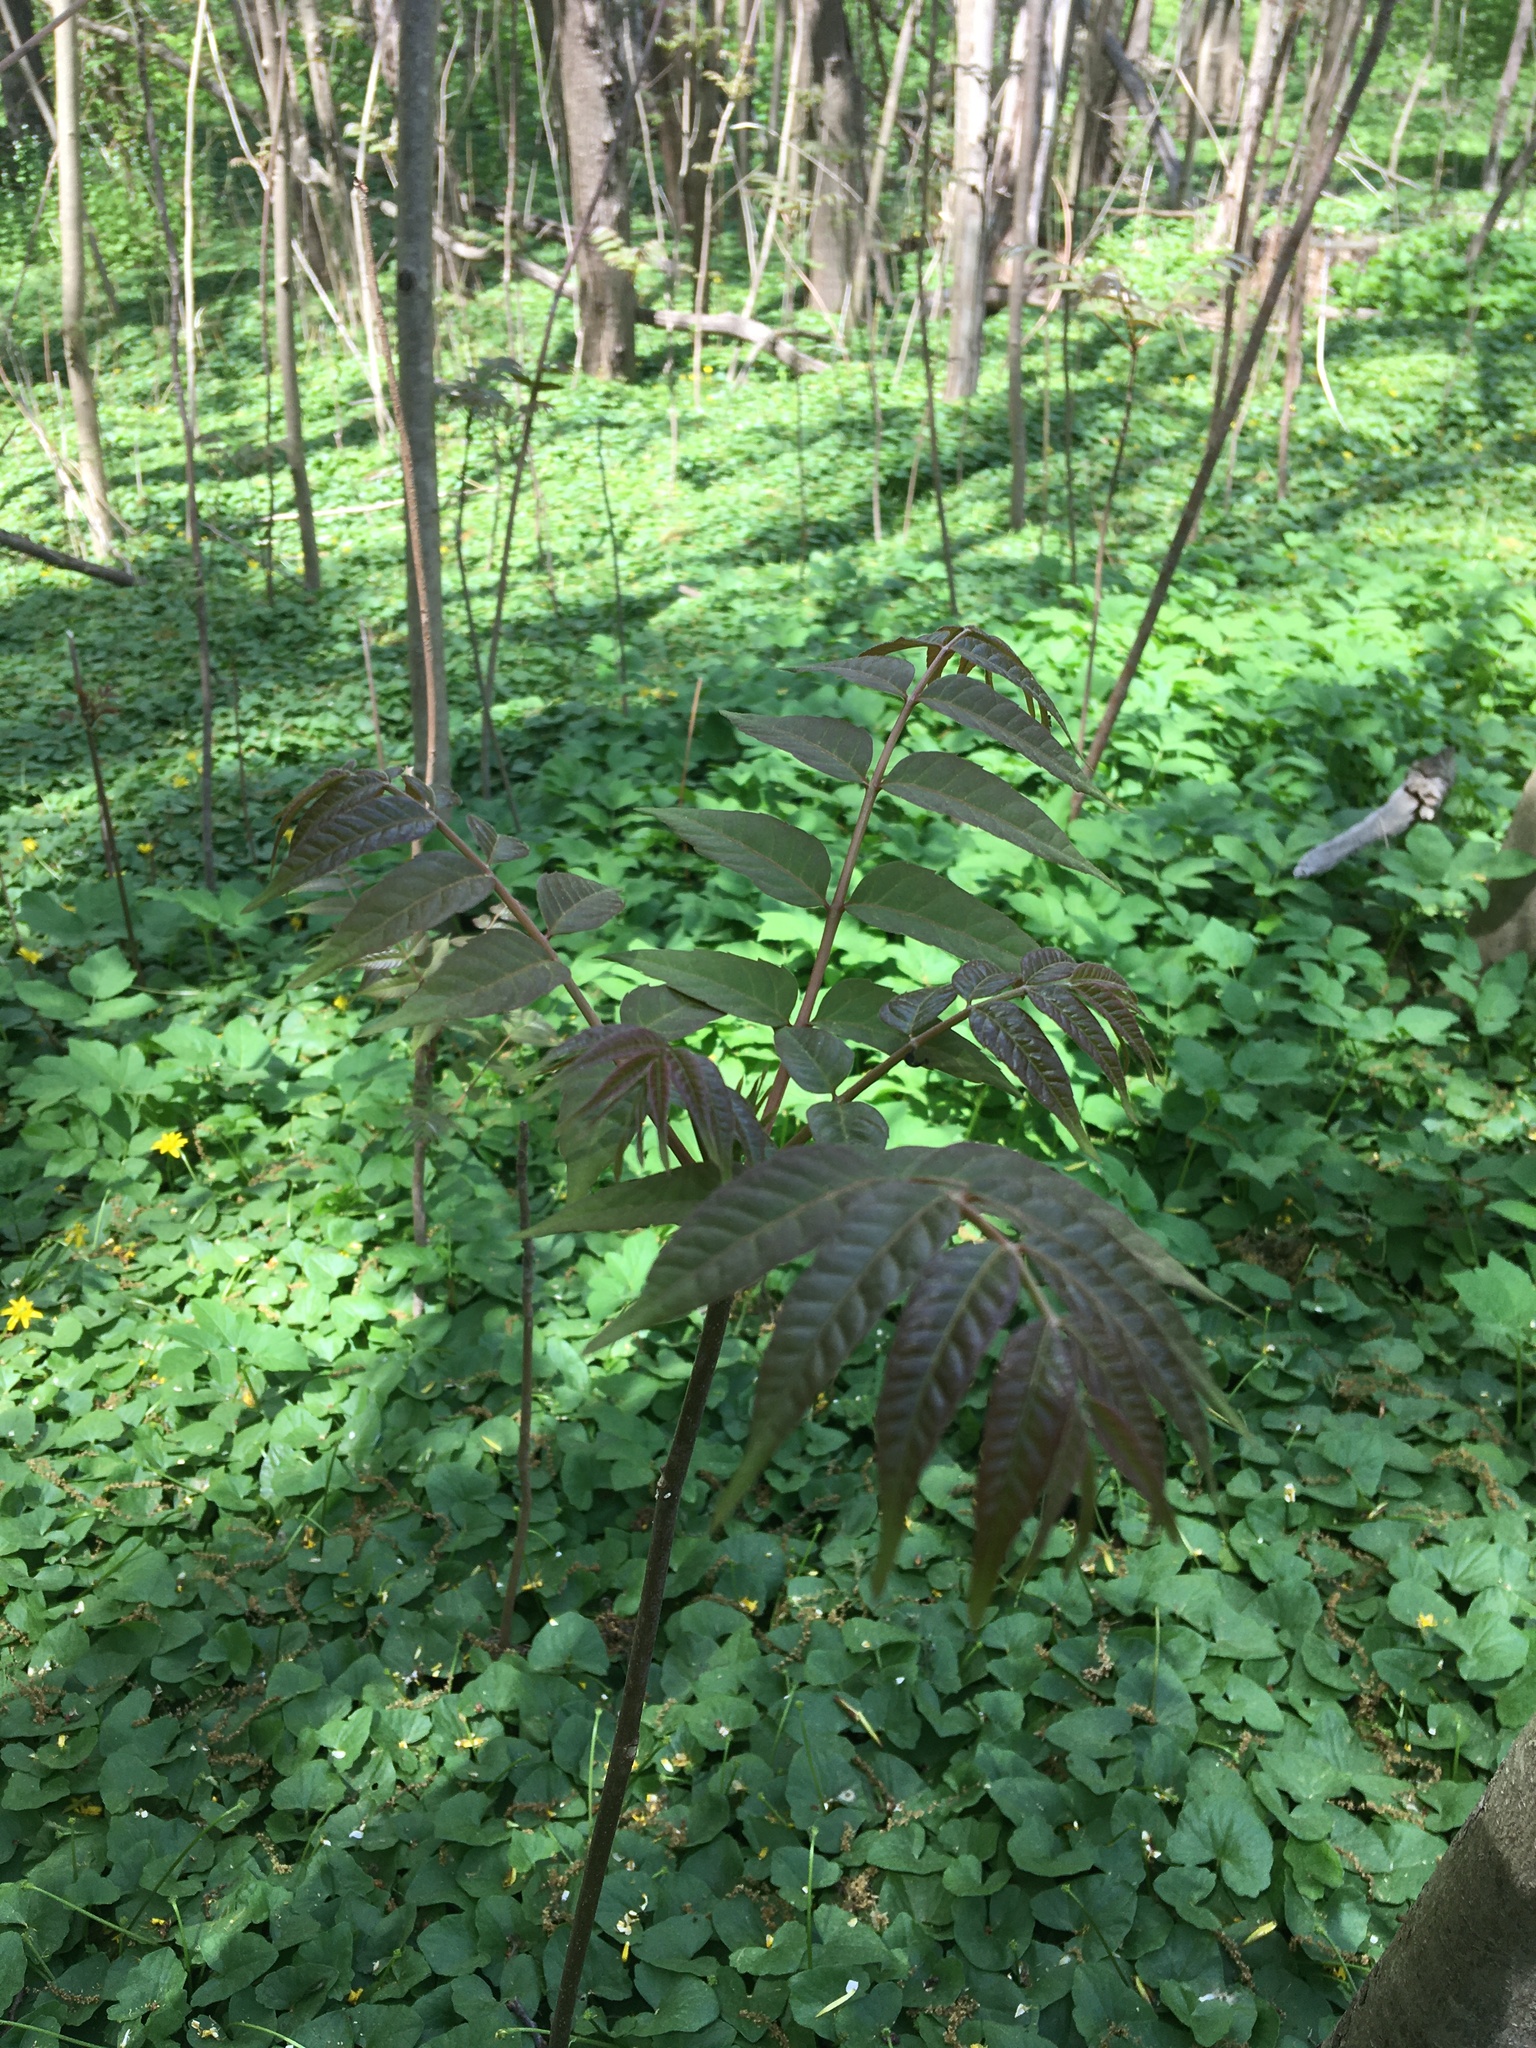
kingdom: Plantae
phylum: Tracheophyta
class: Magnoliopsida
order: Sapindales
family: Meliaceae
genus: Toona
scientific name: Toona sinensis
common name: Red toon
